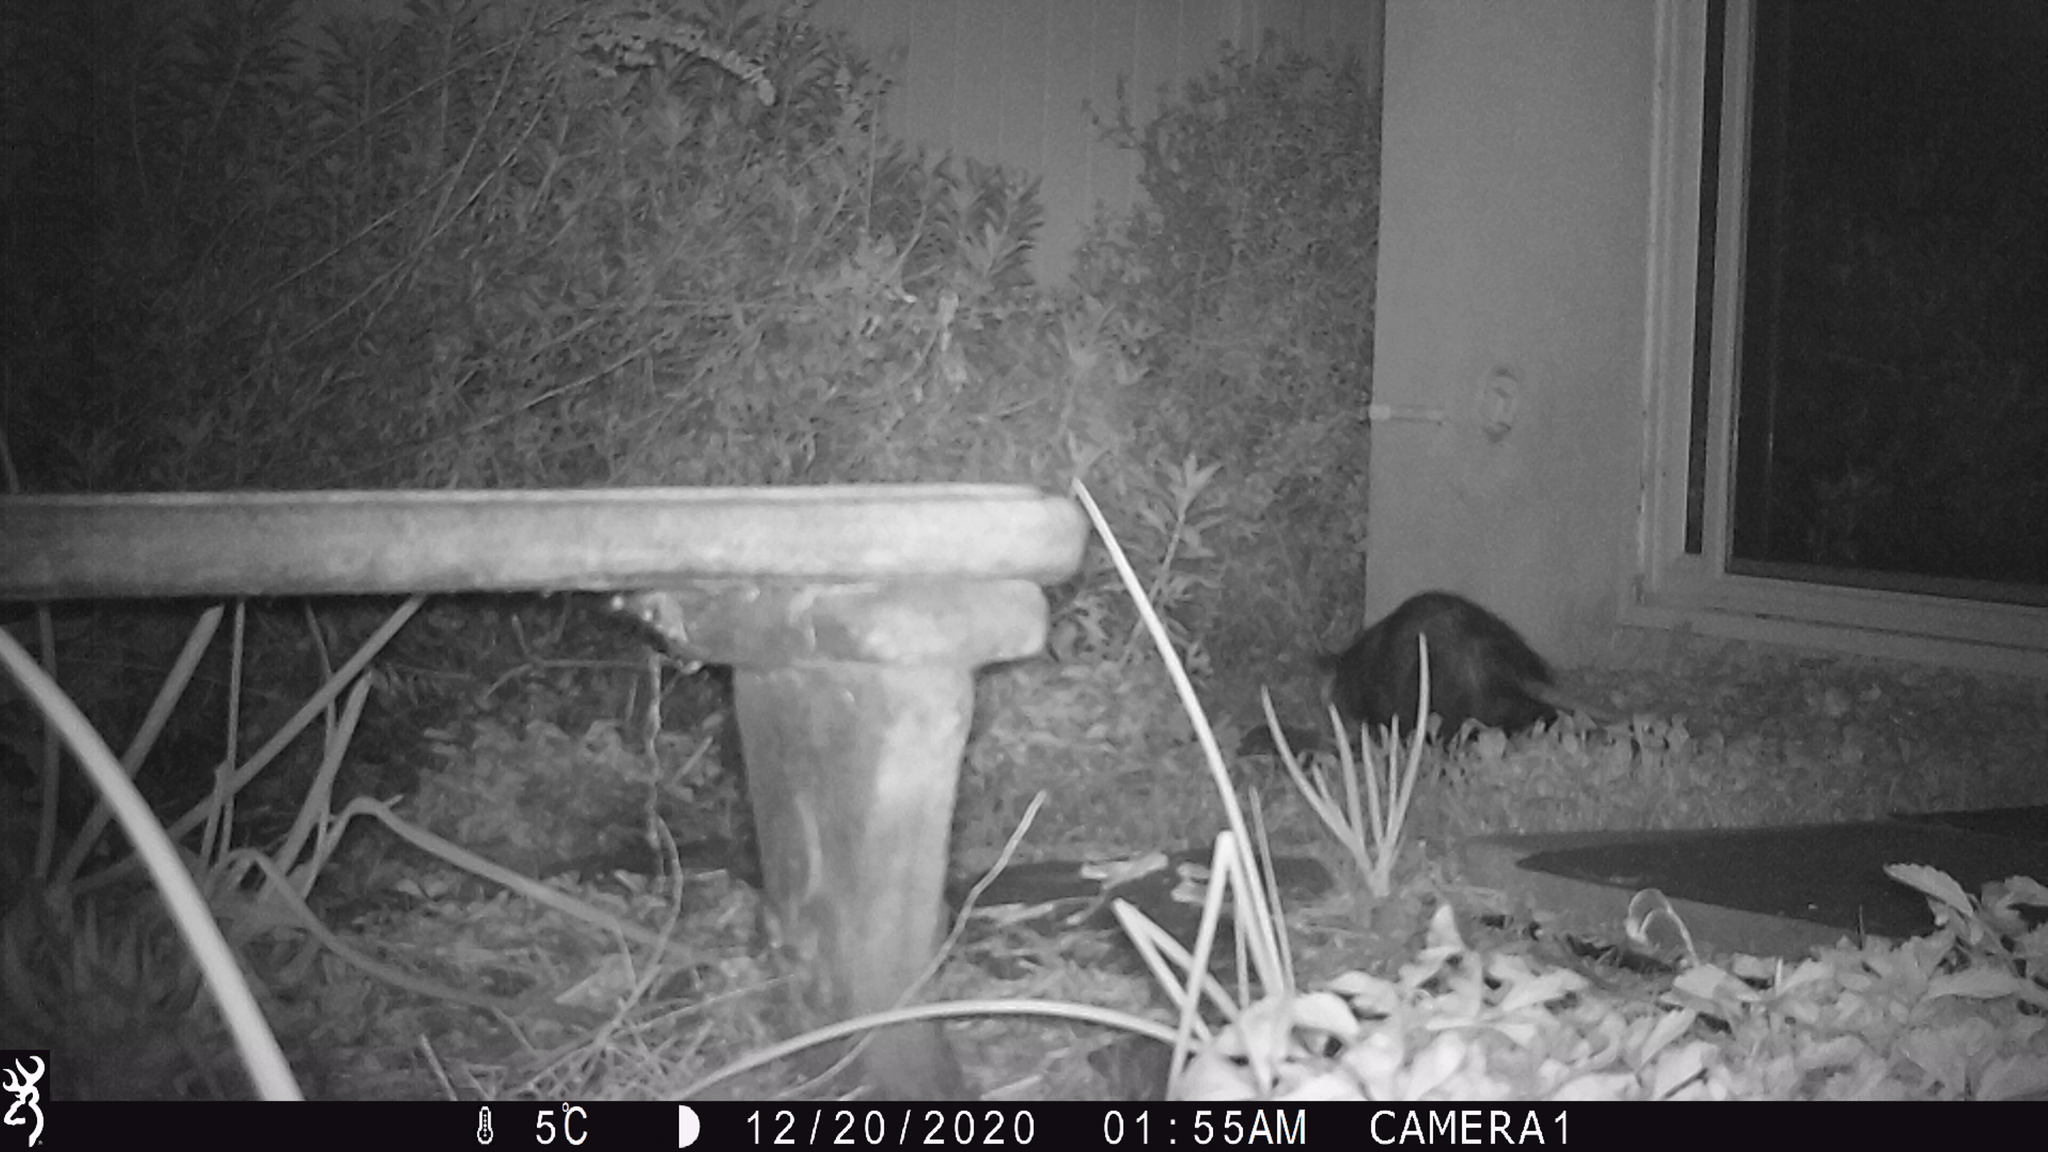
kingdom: Animalia
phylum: Chordata
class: Mammalia
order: Didelphimorphia
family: Didelphidae
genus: Didelphis
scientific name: Didelphis virginiana
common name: Virginia opossum
